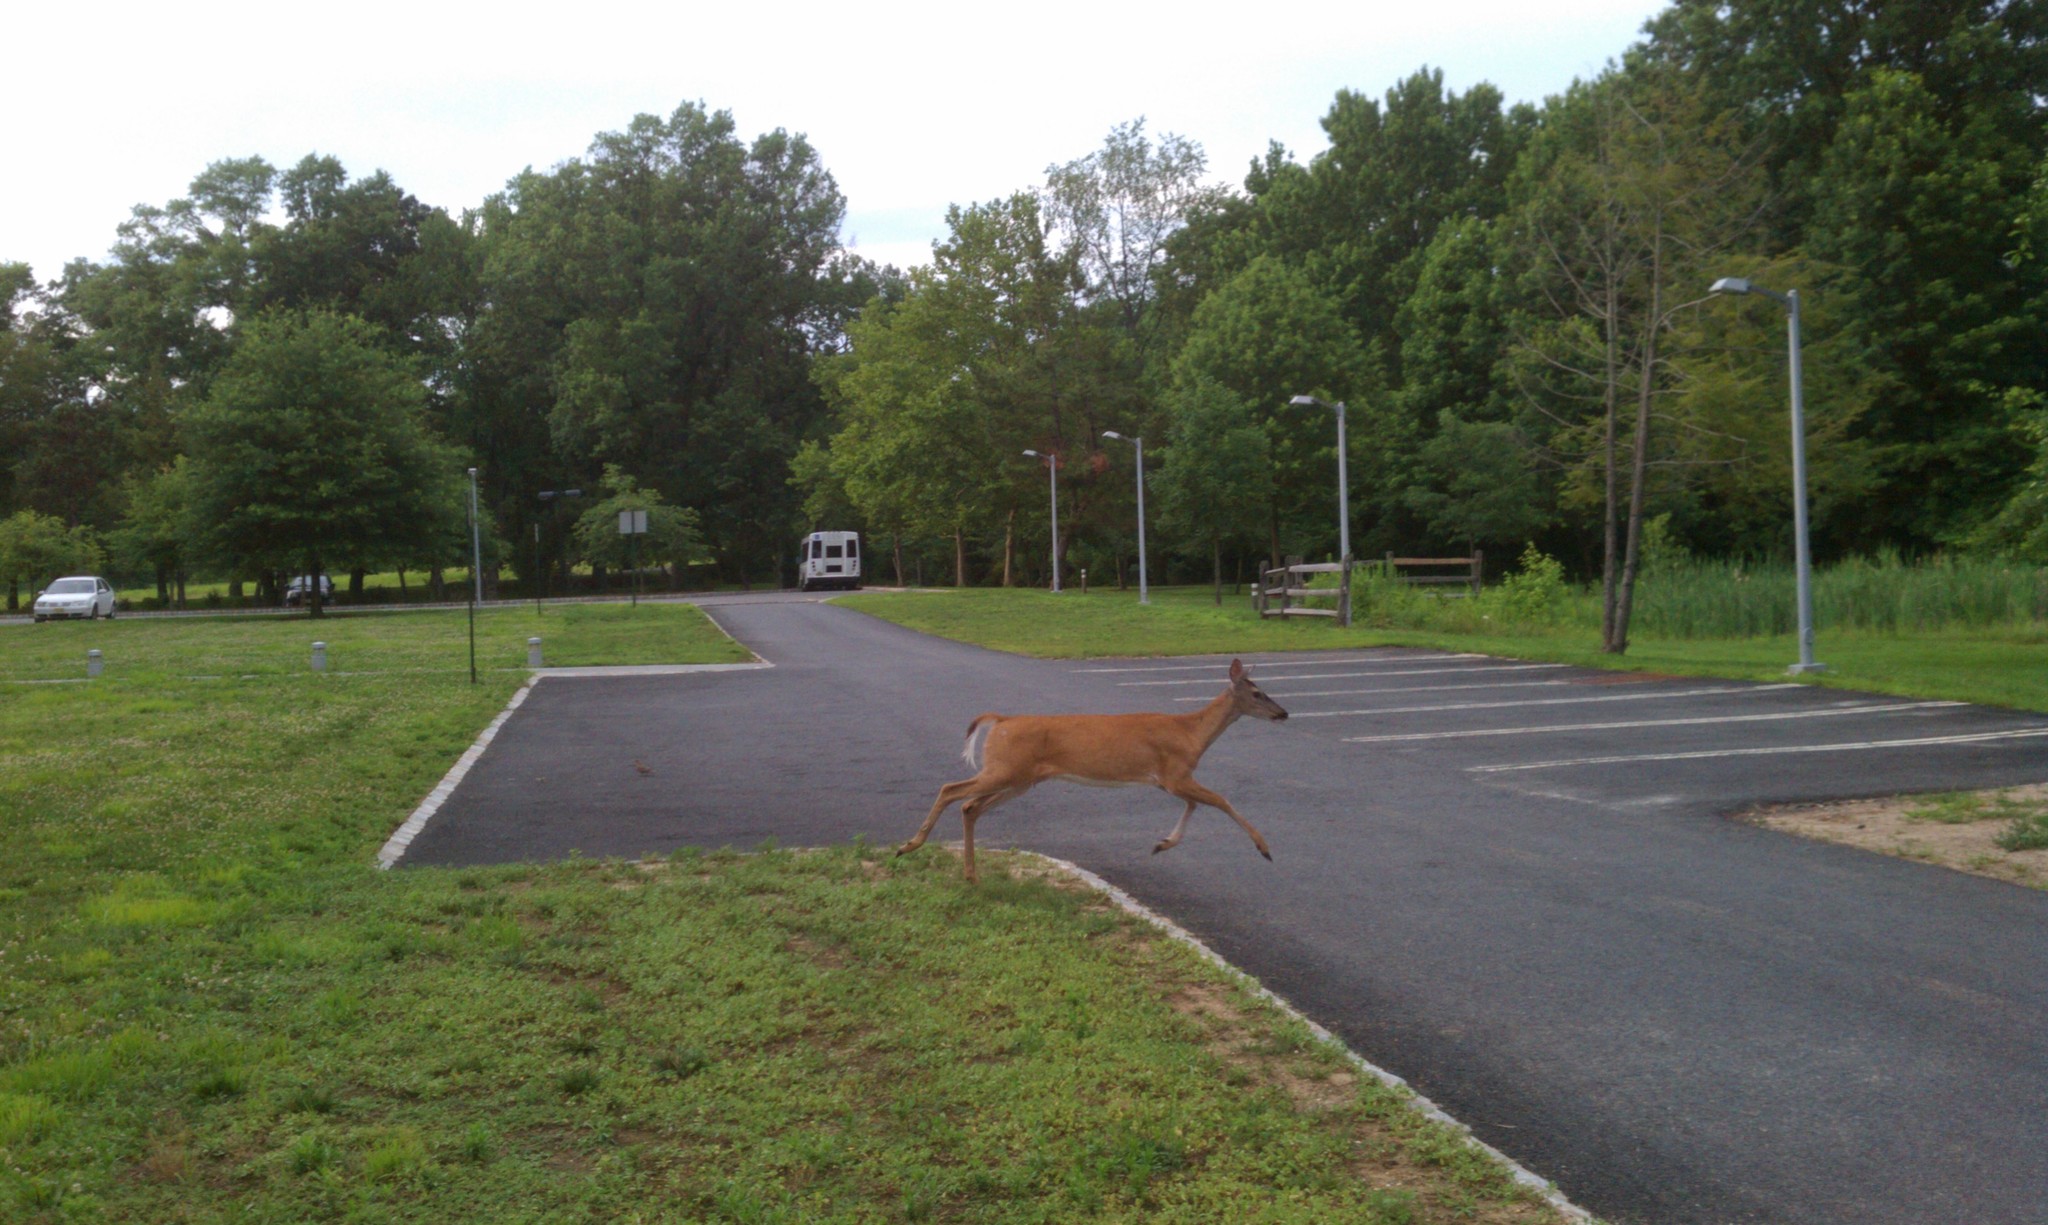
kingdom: Animalia
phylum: Chordata
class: Mammalia
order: Artiodactyla
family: Cervidae
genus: Odocoileus
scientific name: Odocoileus virginianus
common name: White-tailed deer
